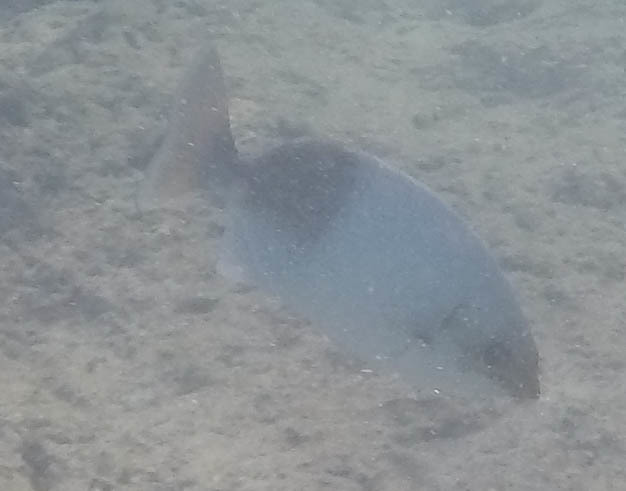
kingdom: Animalia
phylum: Chordata
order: Perciformes
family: Kyphosidae
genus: Kyphosus
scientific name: Kyphosus hawaiiensis
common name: Hawaiian chub
